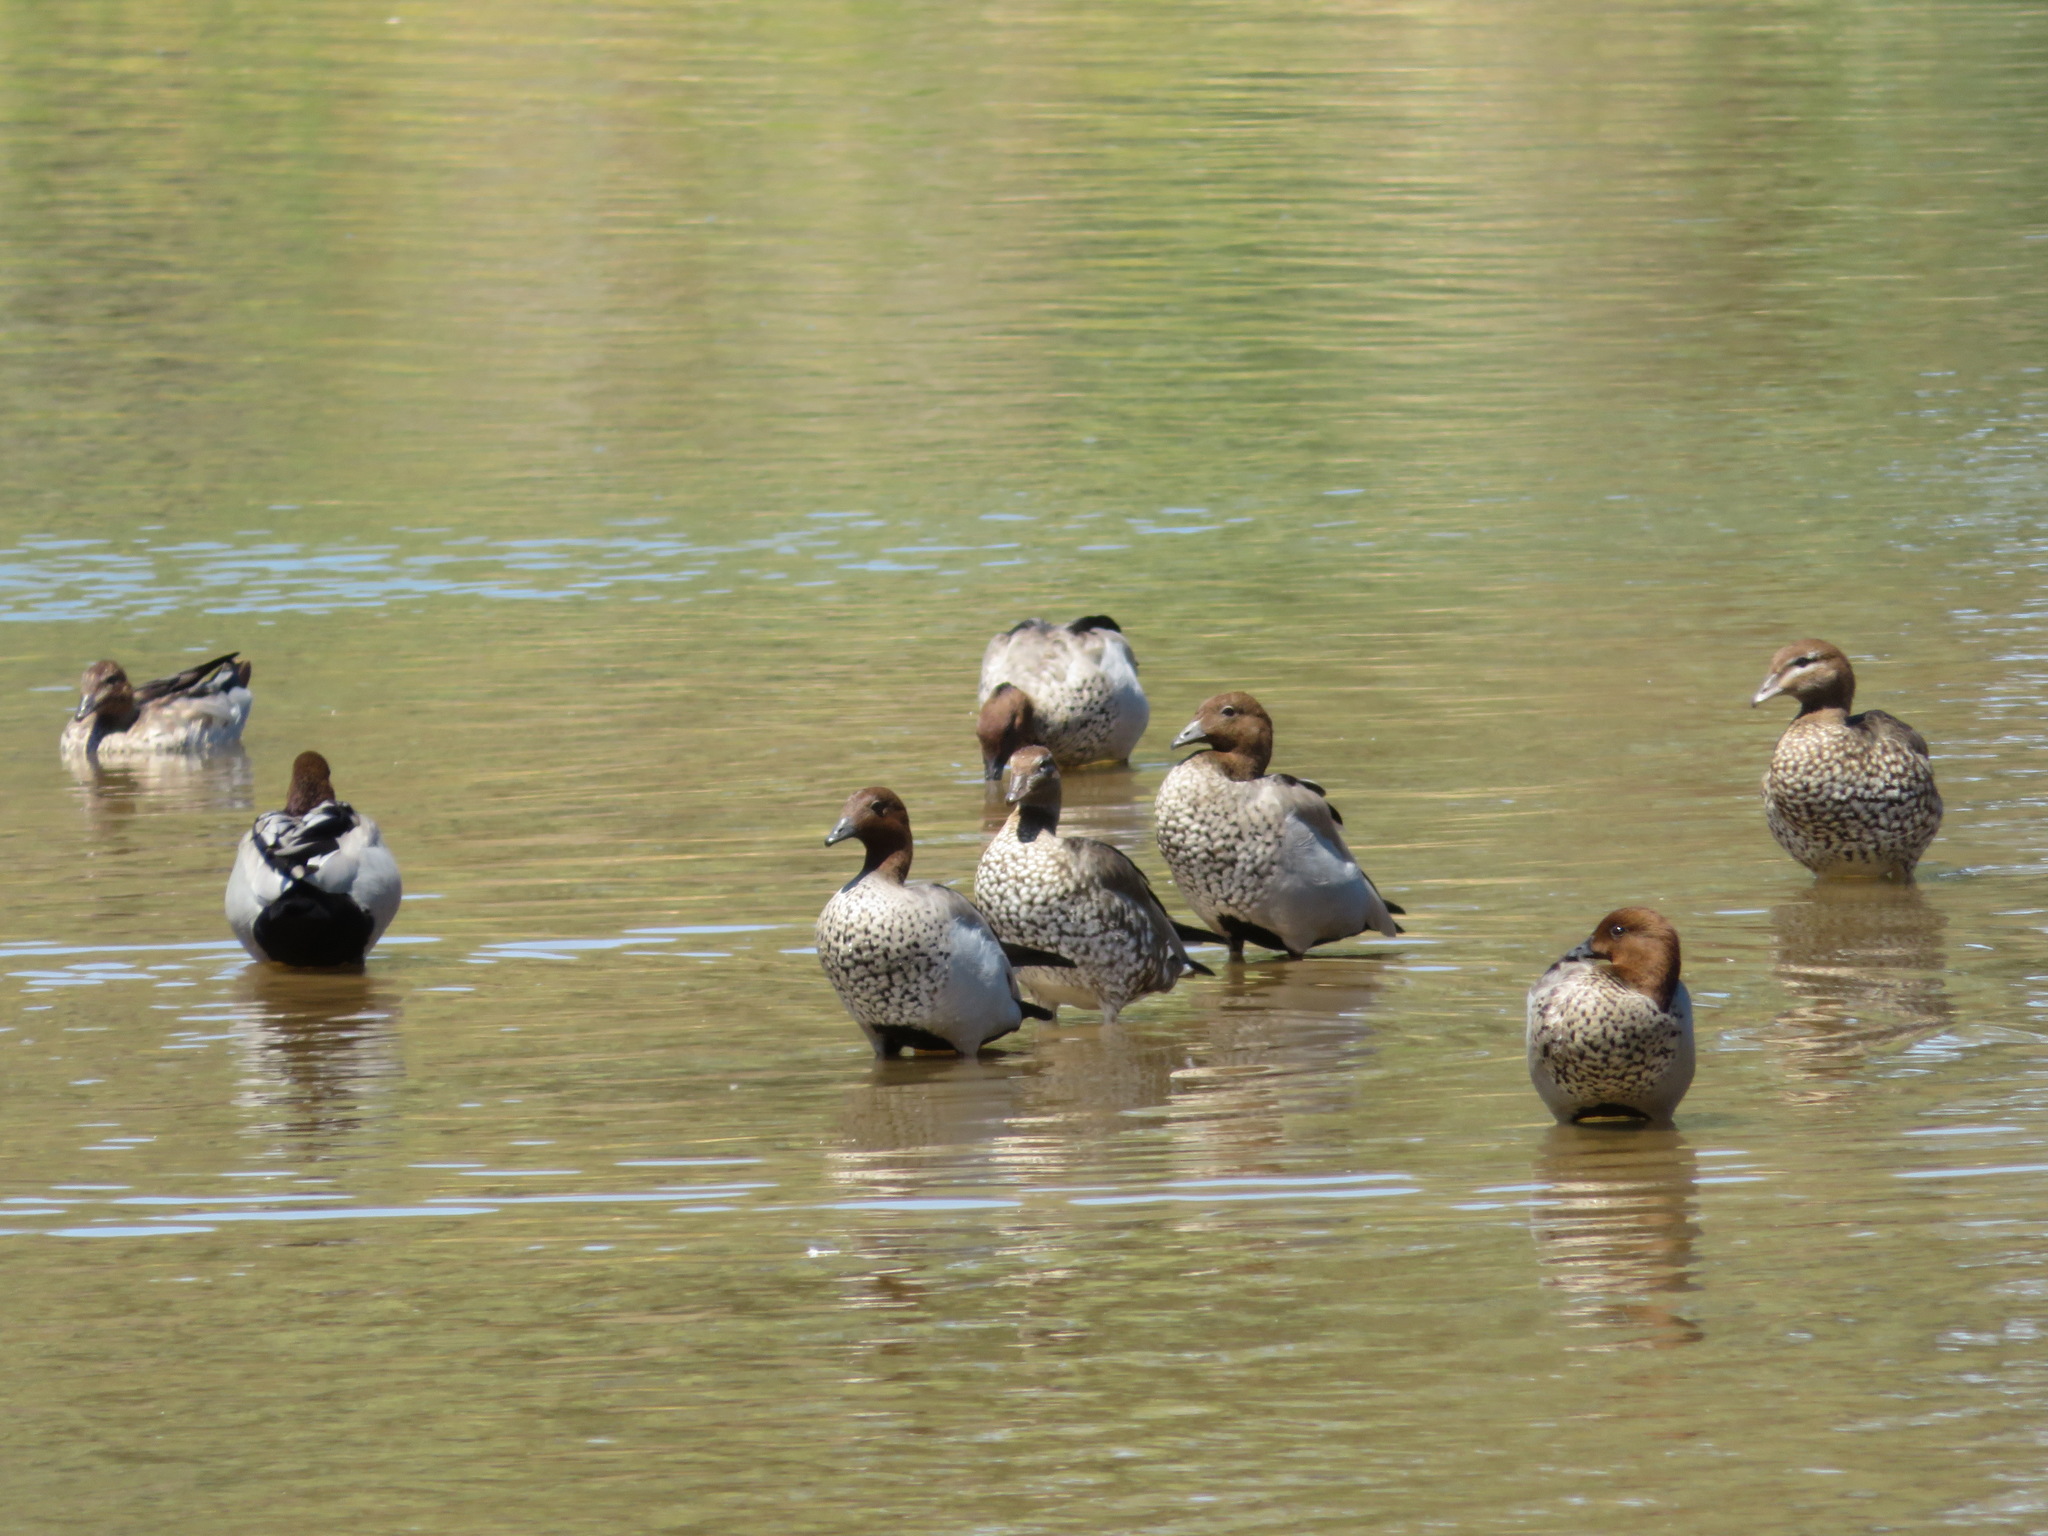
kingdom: Animalia
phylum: Chordata
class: Aves
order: Anseriformes
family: Anatidae
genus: Chenonetta
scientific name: Chenonetta jubata
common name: Maned duck
